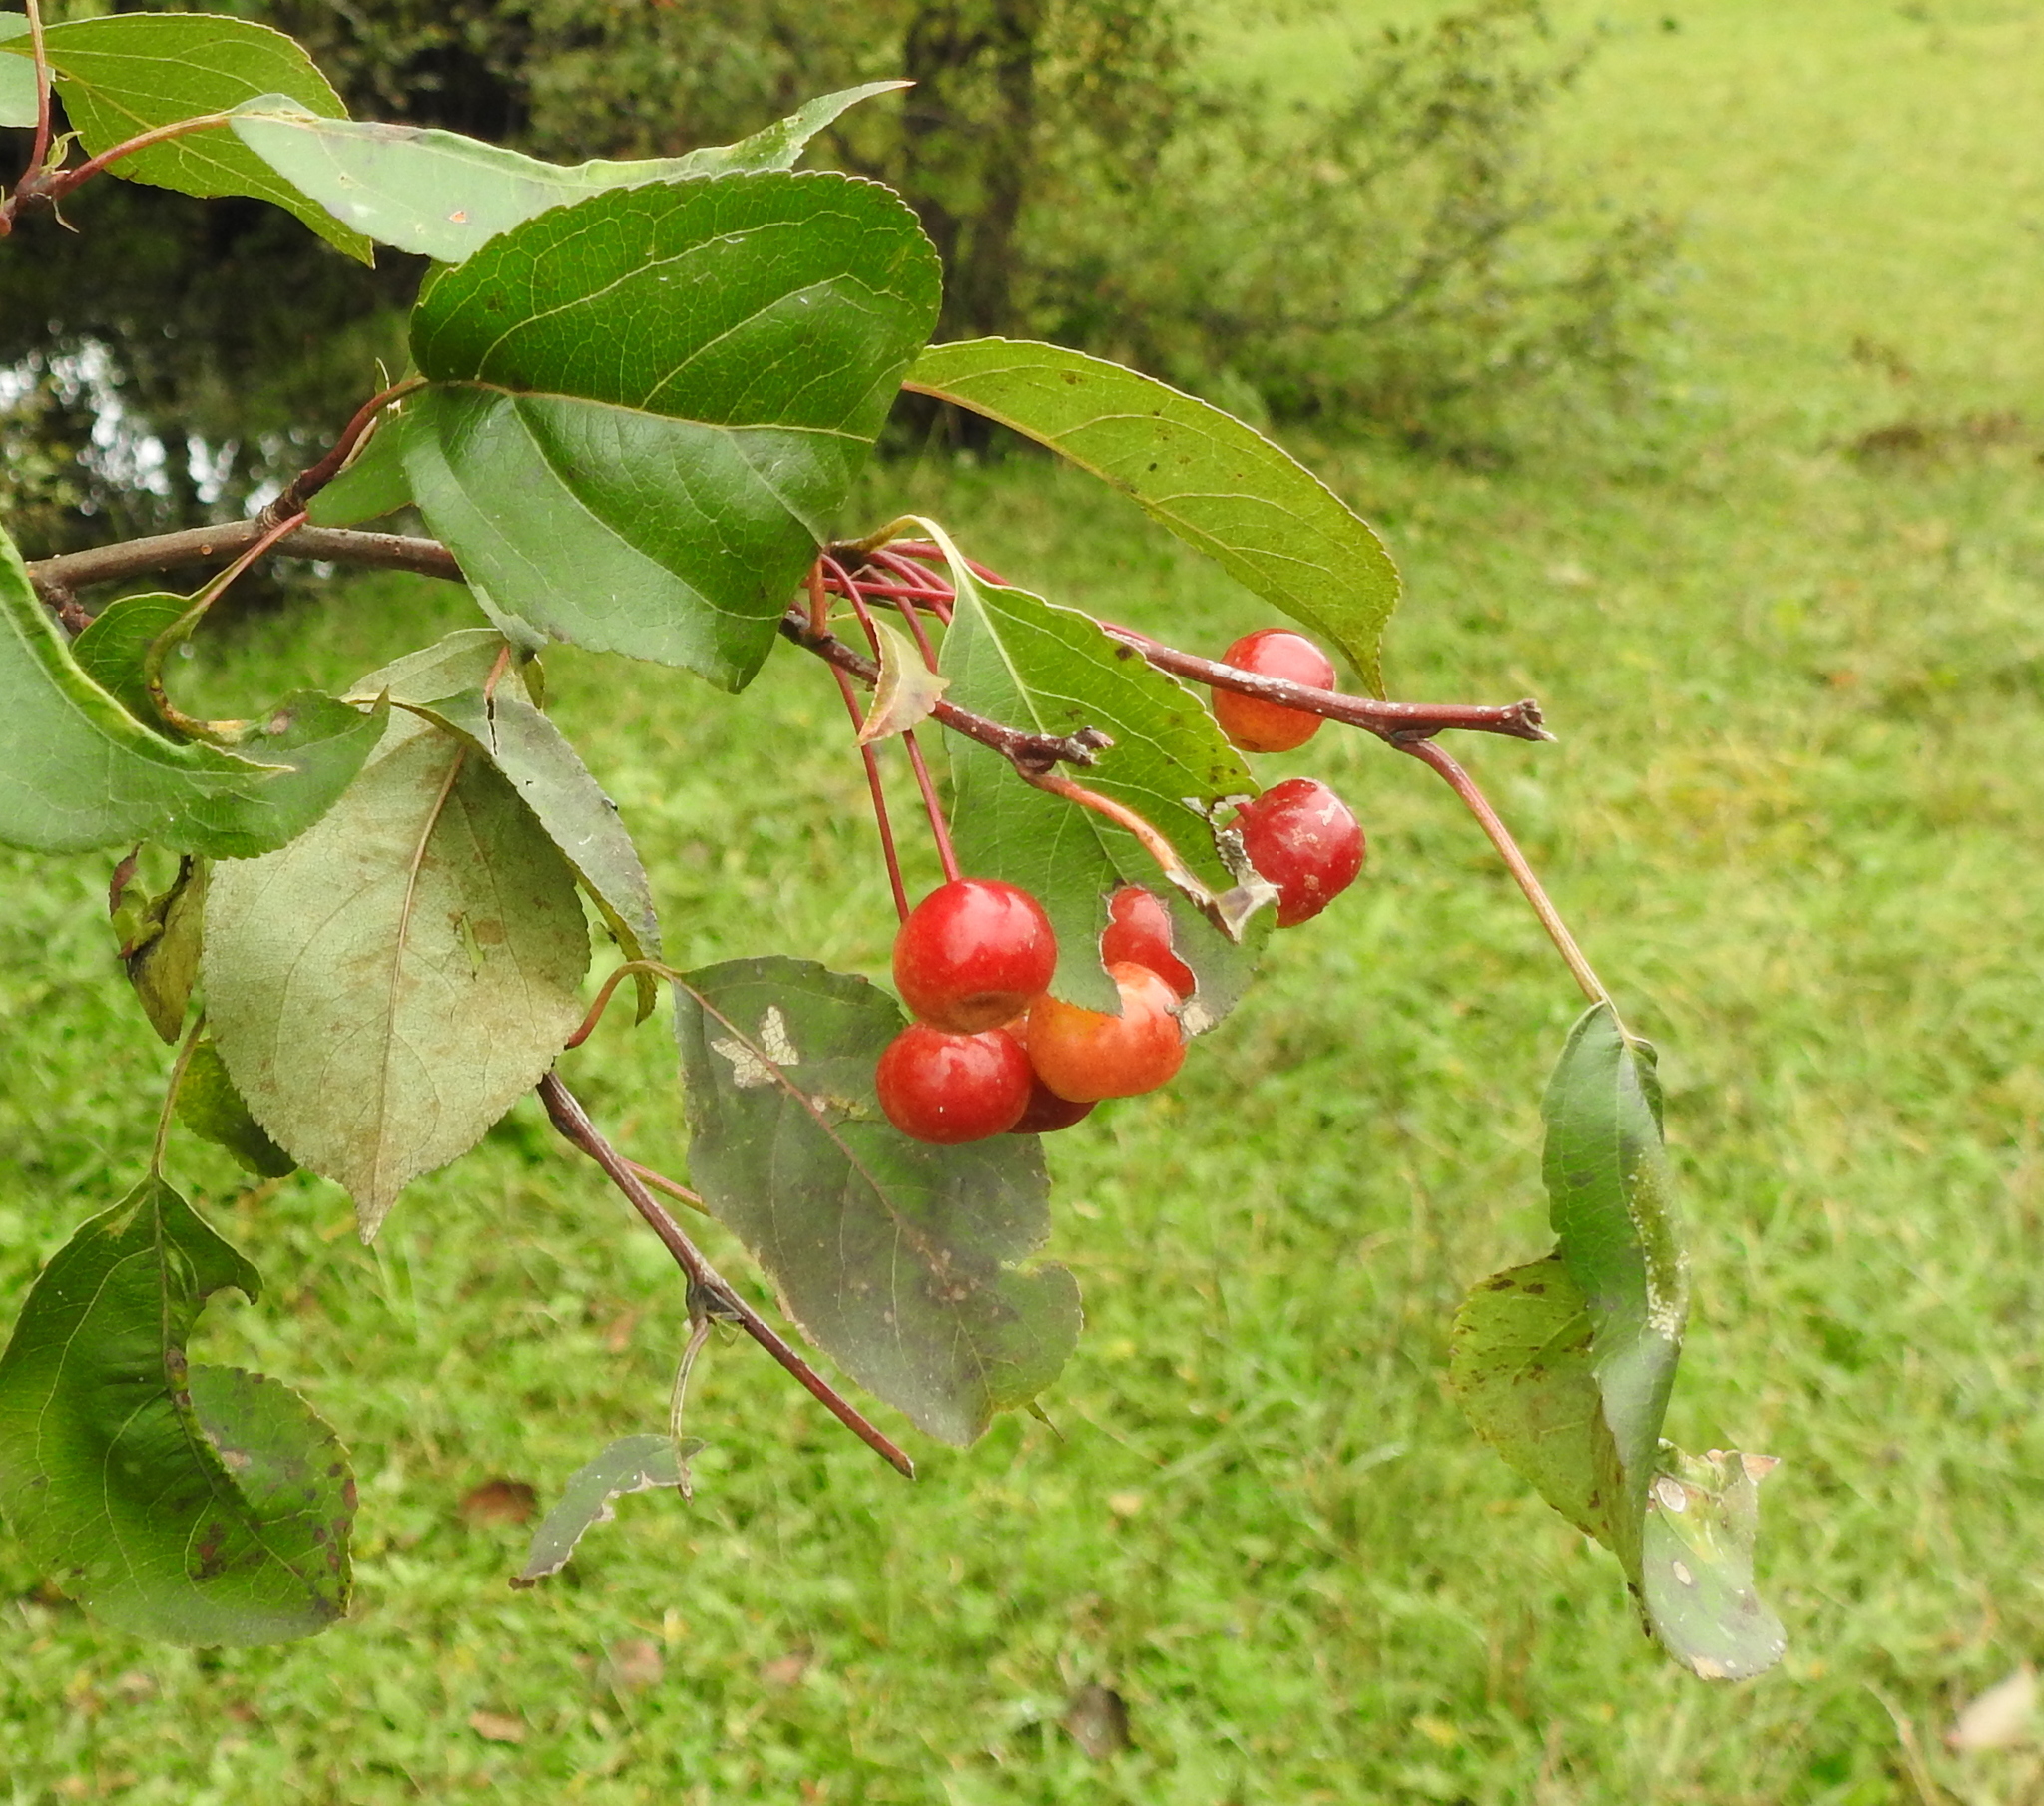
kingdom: Plantae
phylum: Tracheophyta
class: Magnoliopsida
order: Rosales
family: Rosaceae
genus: Malus
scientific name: Malus baccata
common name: Siberian crab
